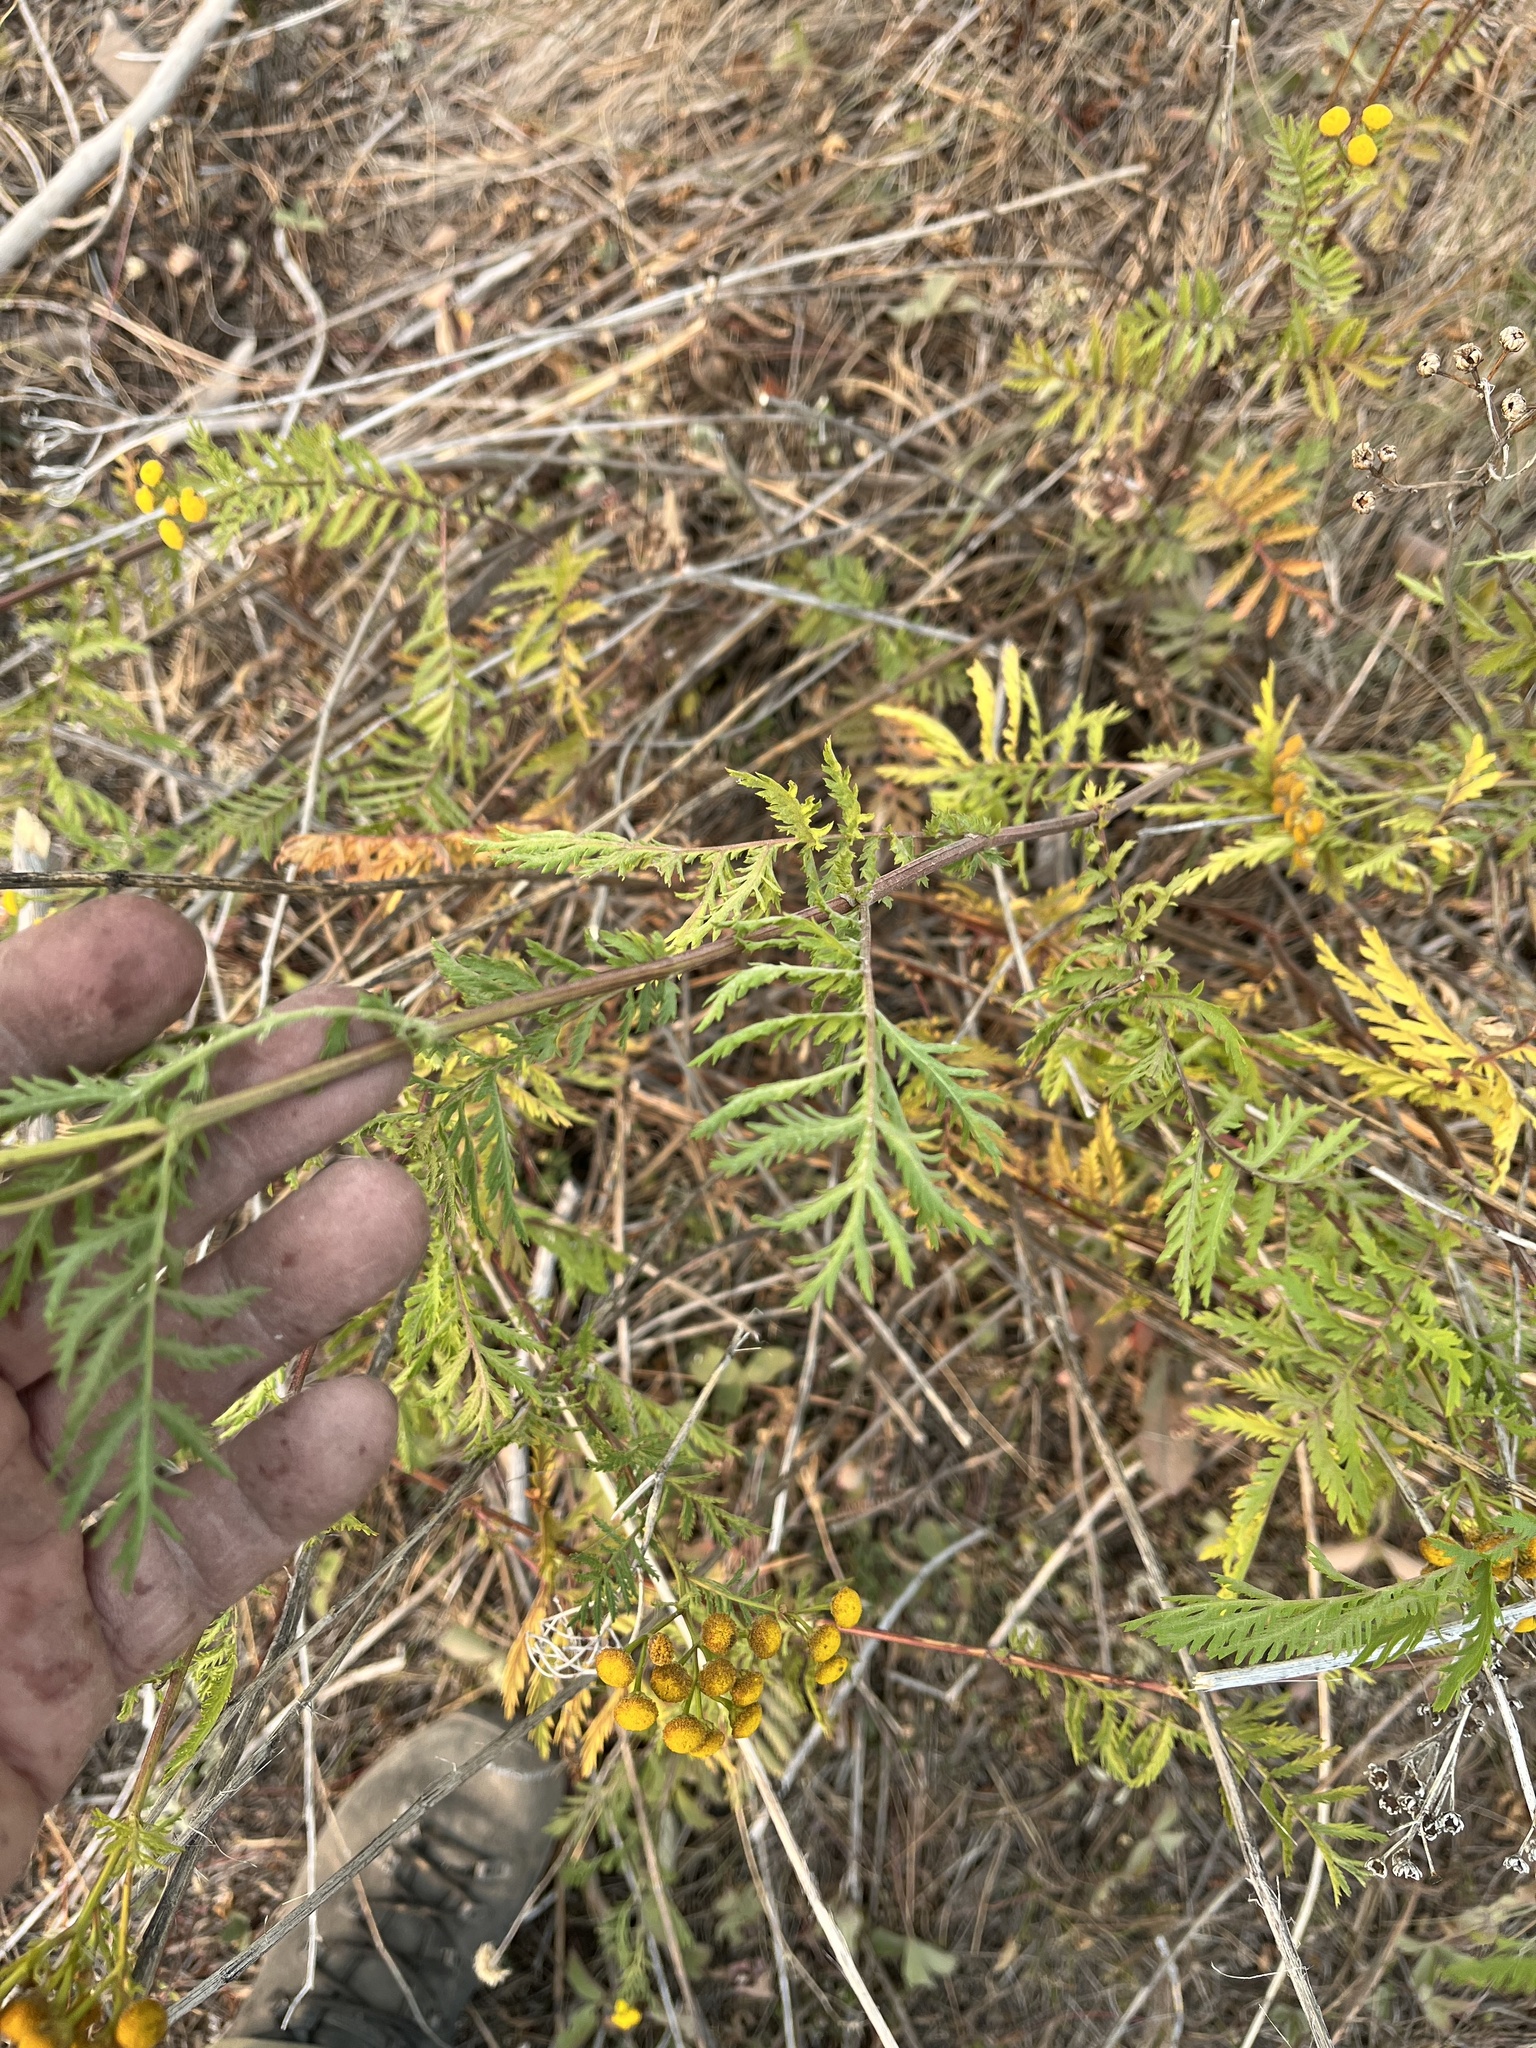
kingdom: Plantae
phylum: Tracheophyta
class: Magnoliopsida
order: Asterales
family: Asteraceae
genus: Tanacetum
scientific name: Tanacetum vulgare
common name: Common tansy
